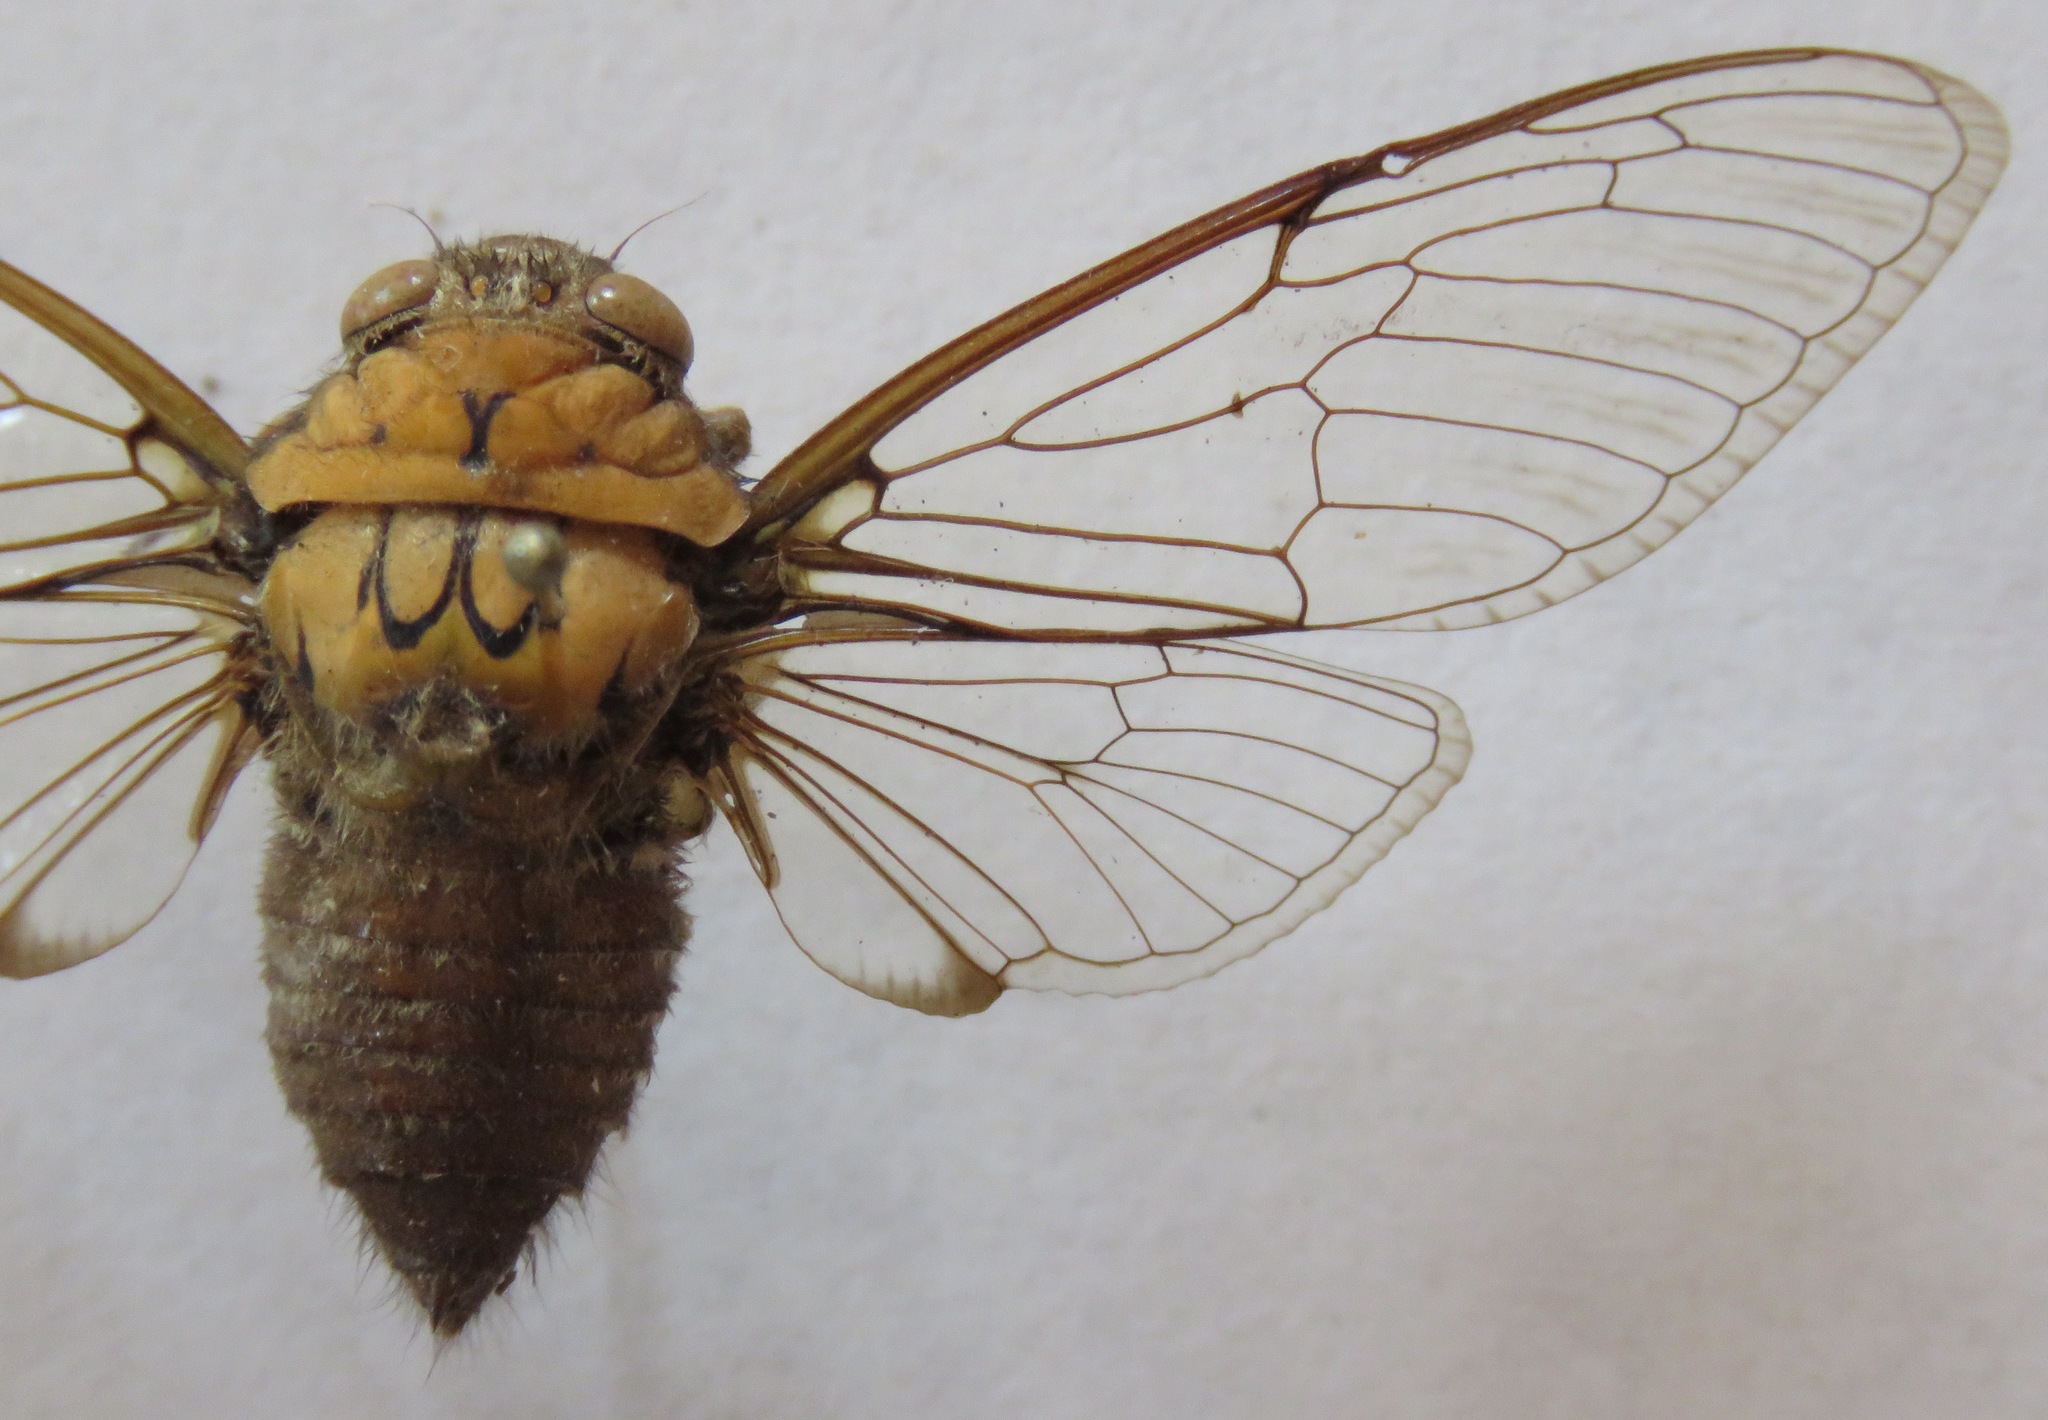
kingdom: Animalia
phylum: Arthropoda
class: Insecta
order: Hemiptera
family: Cicadidae
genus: Carineta
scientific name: Carineta postica
